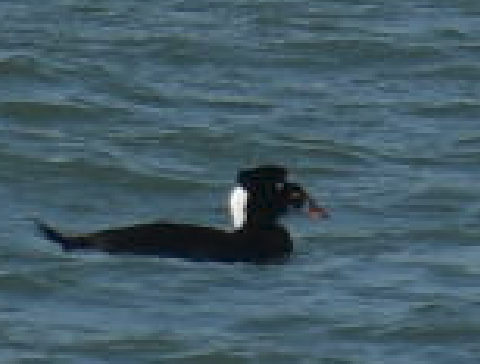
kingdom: Animalia
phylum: Chordata
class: Aves
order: Anseriformes
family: Anatidae
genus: Melanitta
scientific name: Melanitta perspicillata
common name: Surf scoter
